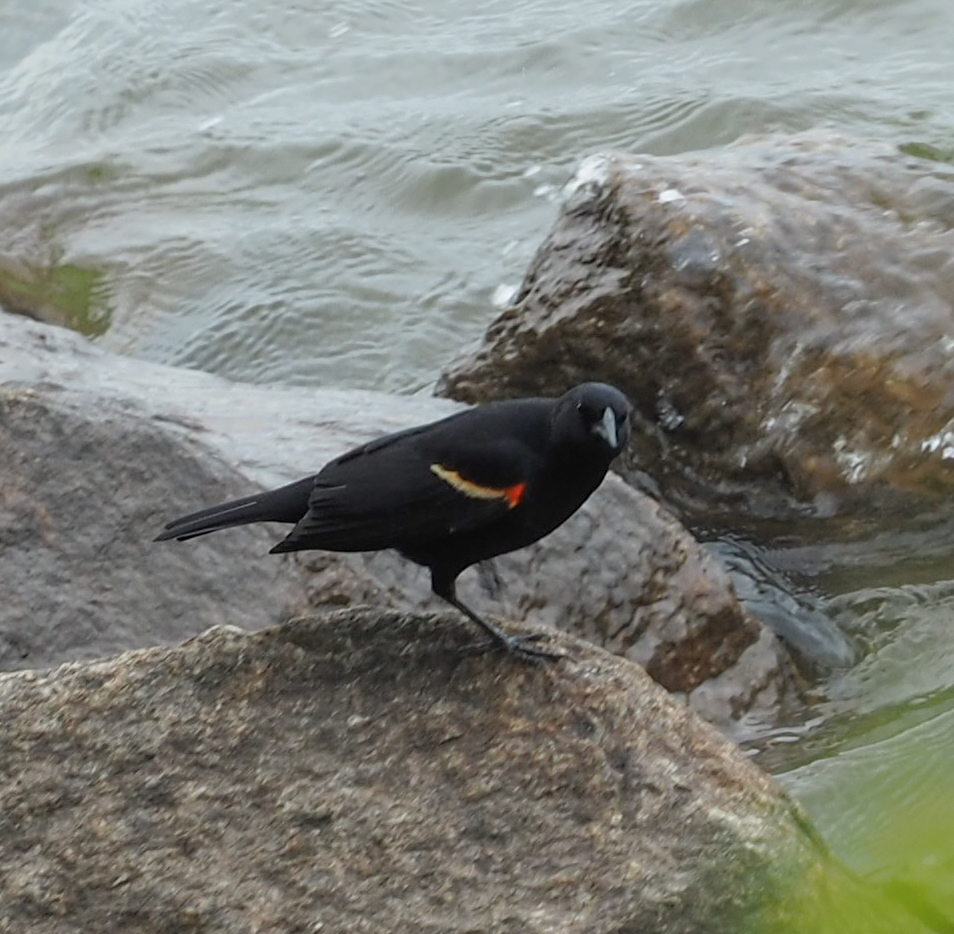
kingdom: Animalia
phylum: Chordata
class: Aves
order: Passeriformes
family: Icteridae
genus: Agelaius
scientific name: Agelaius phoeniceus
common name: Red-winged blackbird
